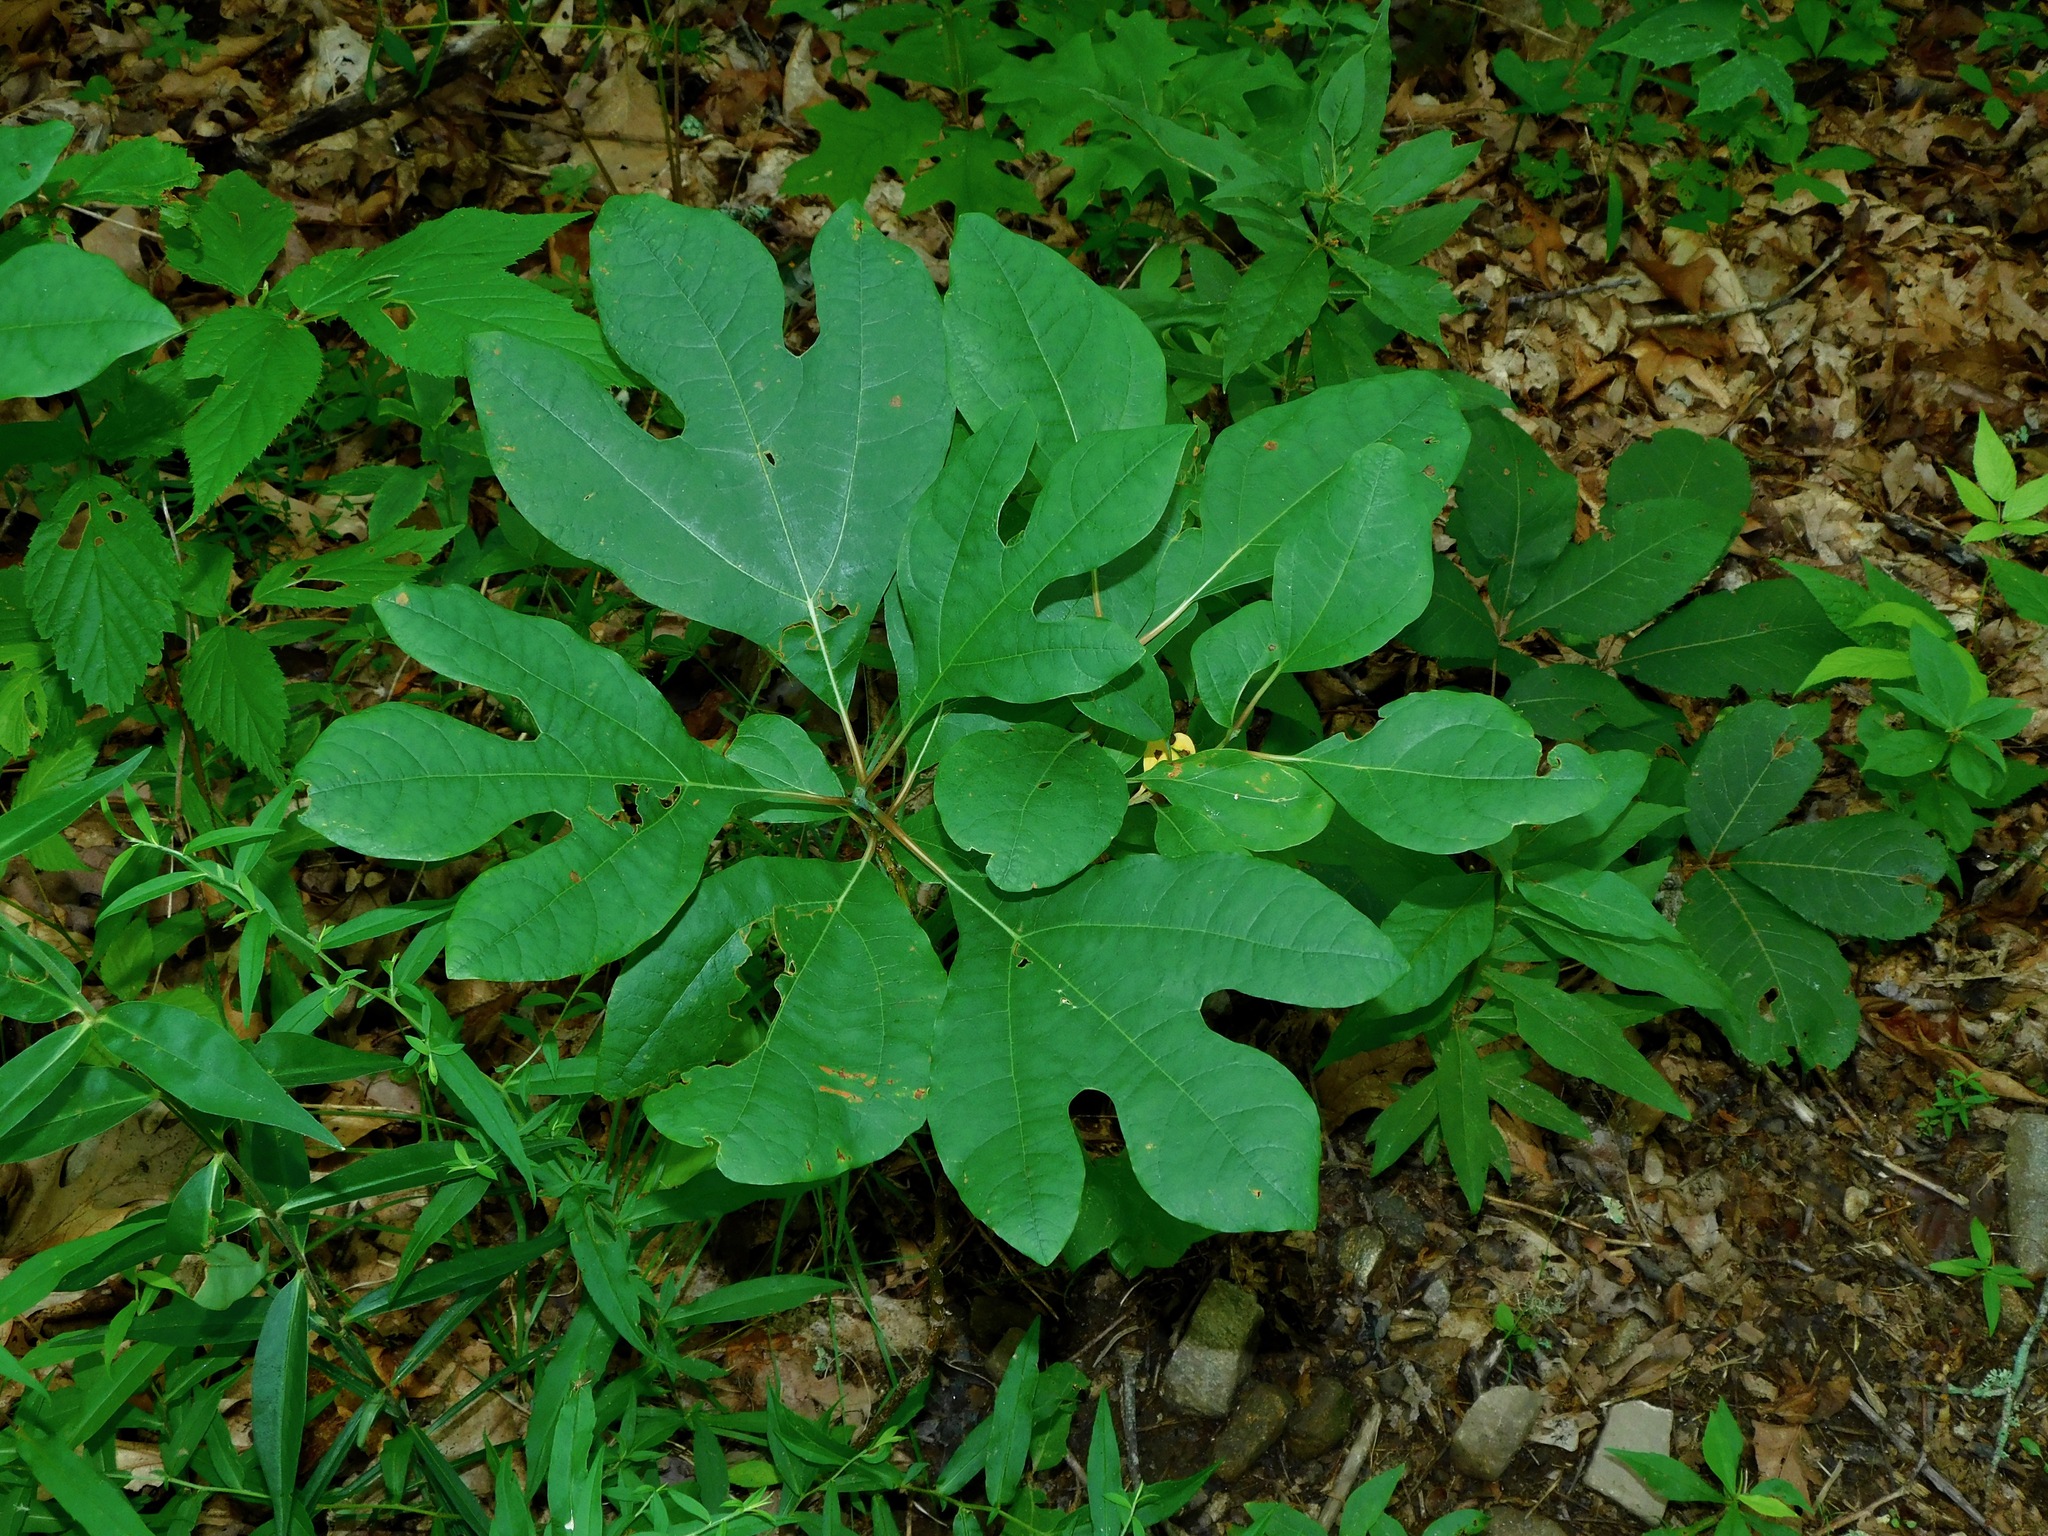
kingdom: Plantae
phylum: Tracheophyta
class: Magnoliopsida
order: Laurales
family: Lauraceae
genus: Sassafras
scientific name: Sassafras albidum
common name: Sassafras
